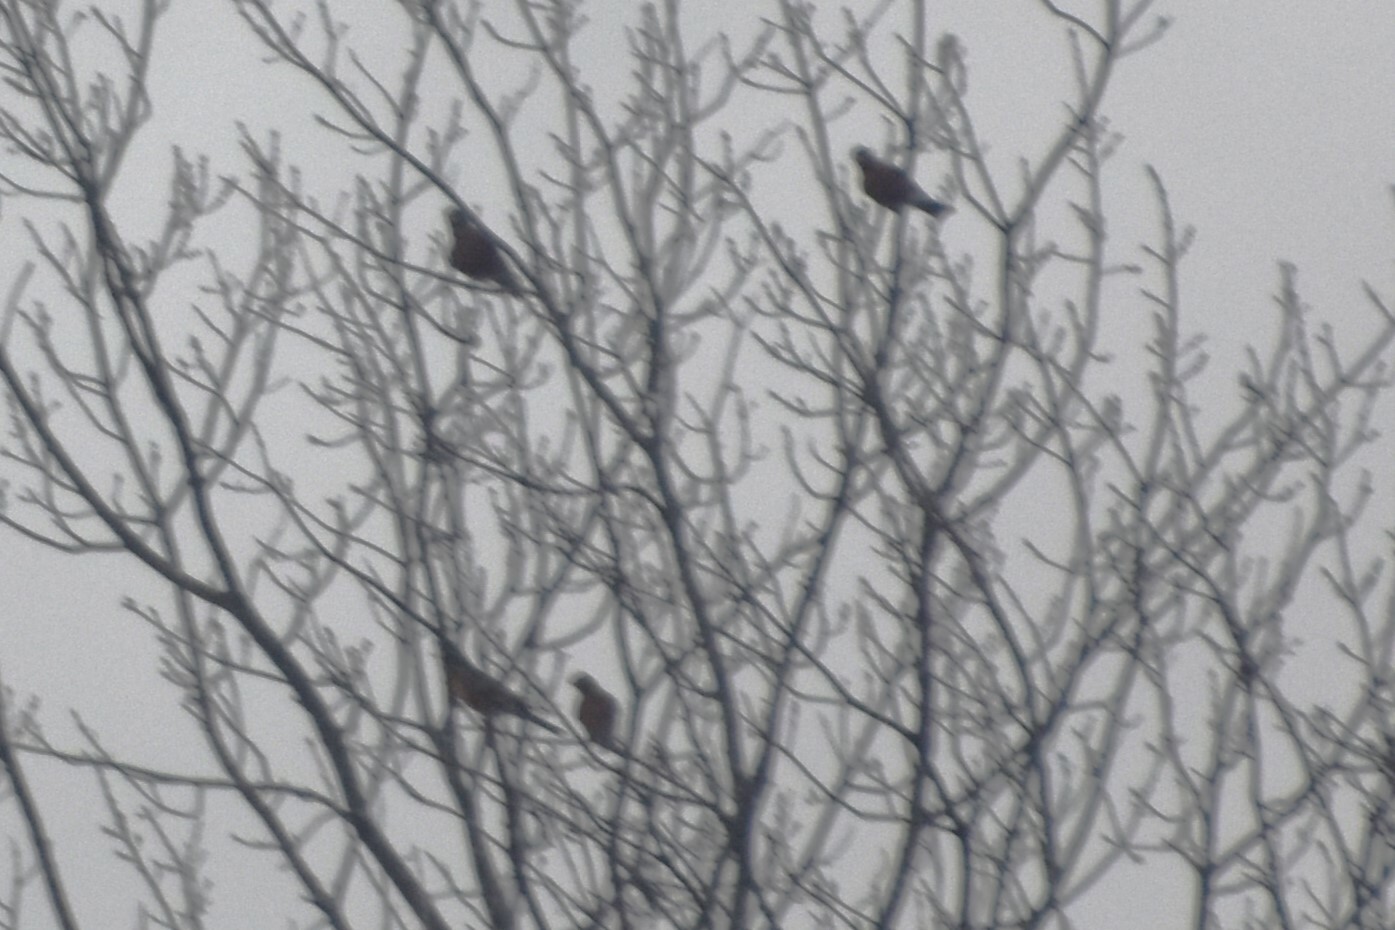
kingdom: Animalia
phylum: Chordata
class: Aves
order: Passeriformes
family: Turdidae
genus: Turdus
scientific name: Turdus migratorius
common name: American robin
